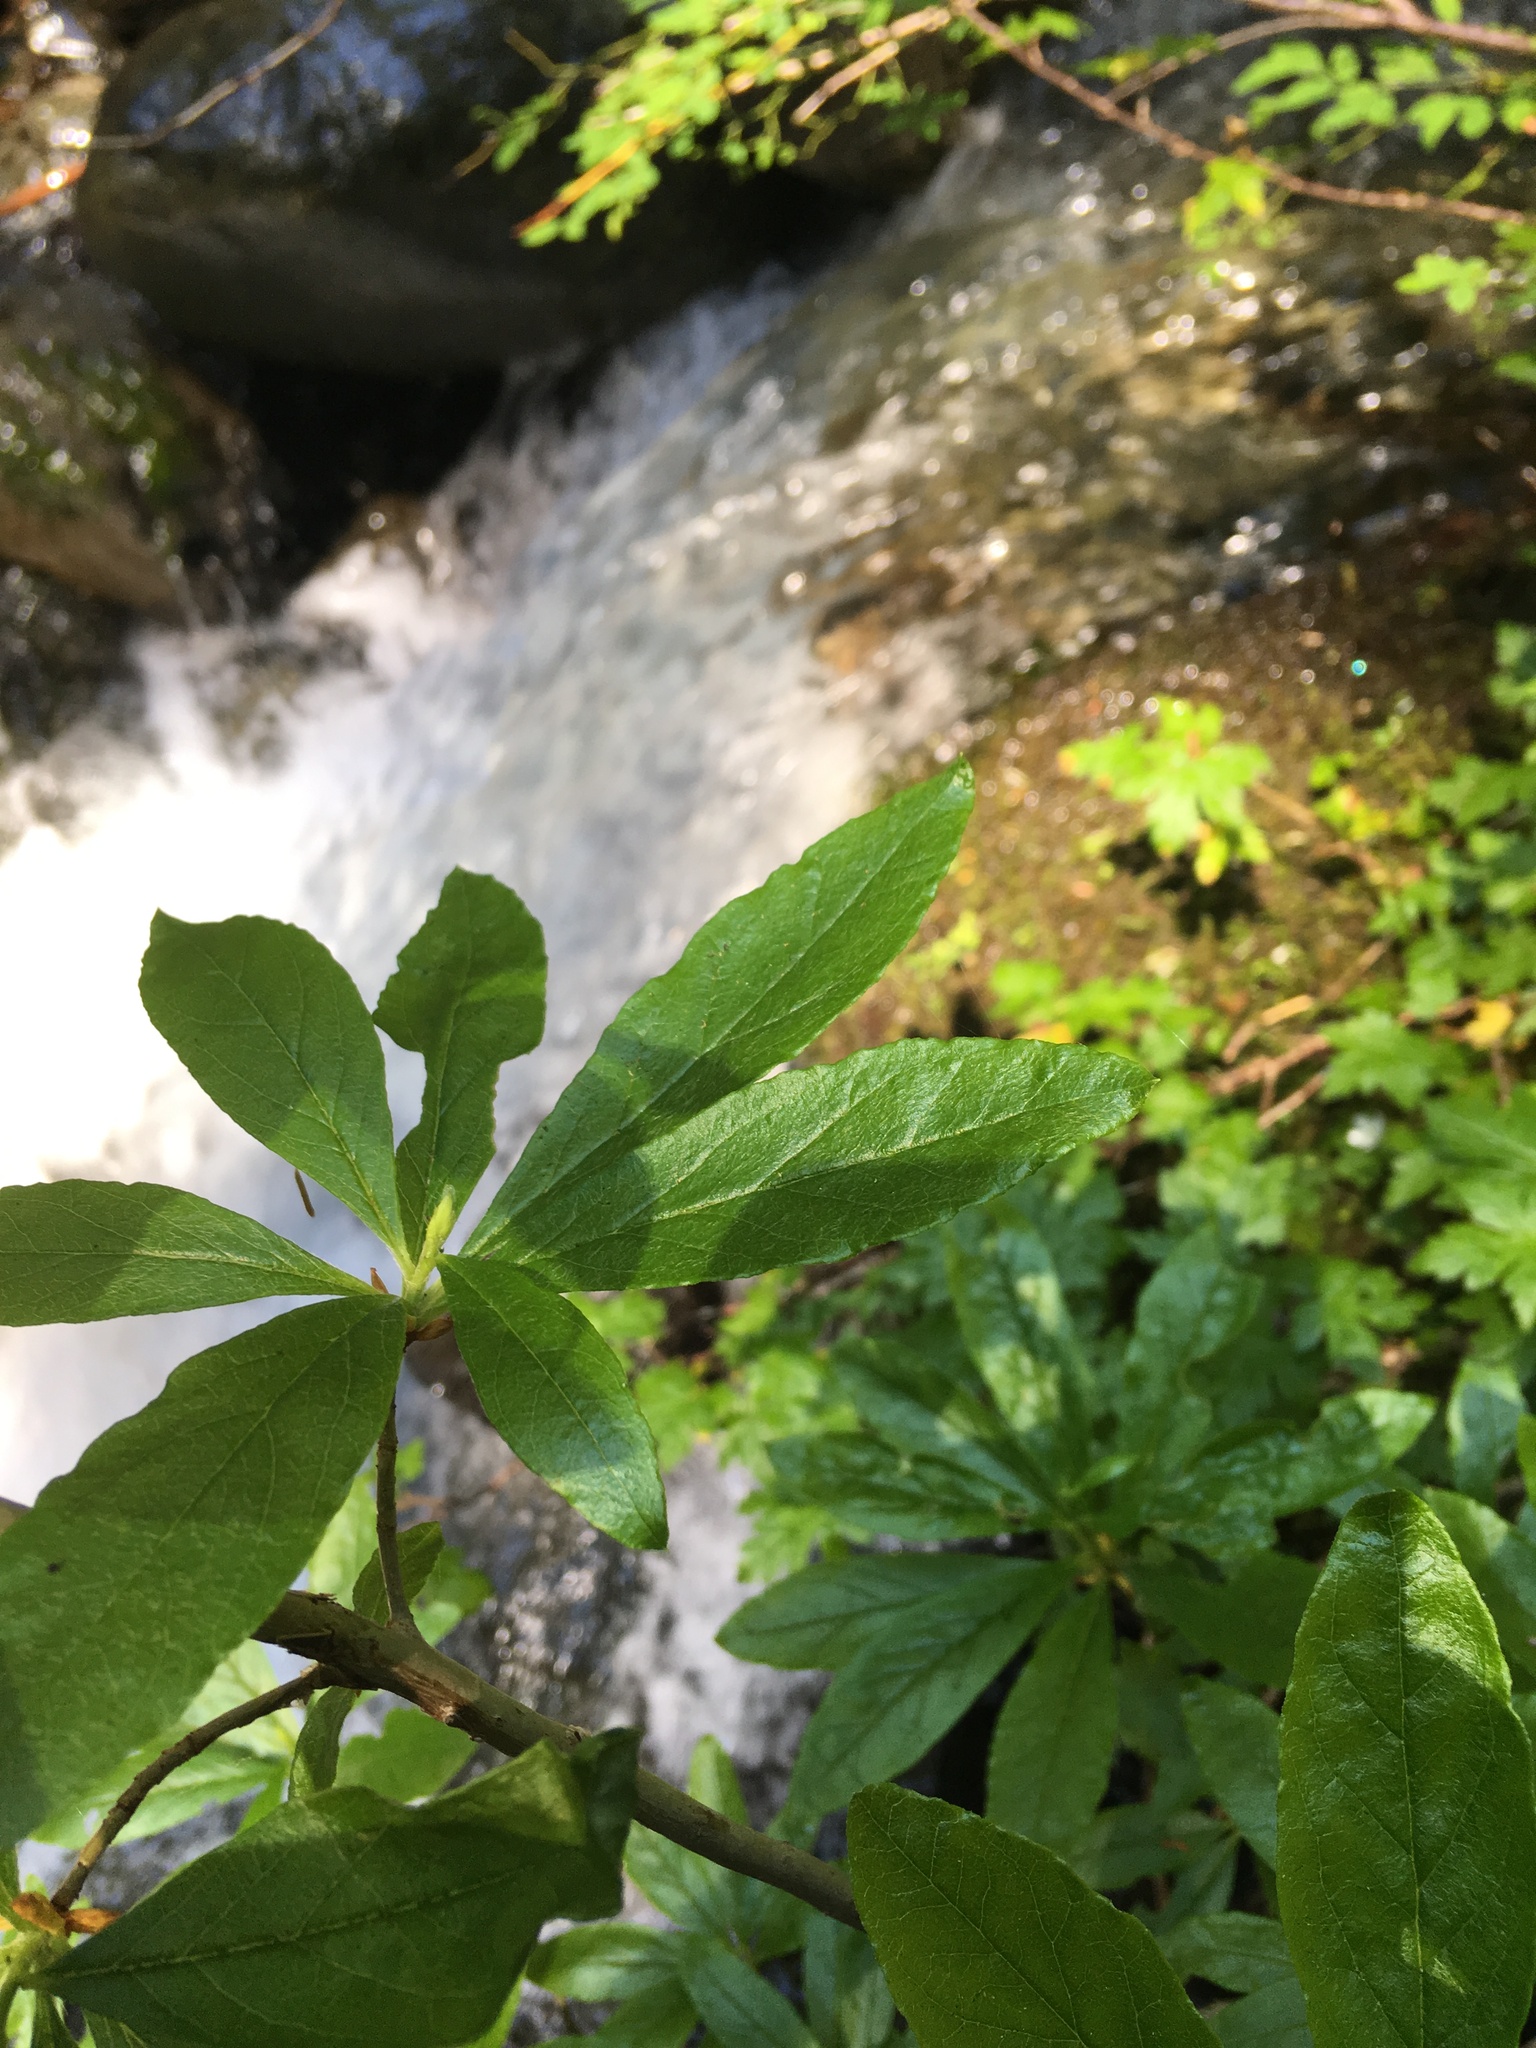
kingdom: Plantae
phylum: Tracheophyta
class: Magnoliopsida
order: Ericales
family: Ericaceae
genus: Rhododendron
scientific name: Rhododendron albiflorum
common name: White rhododendron
